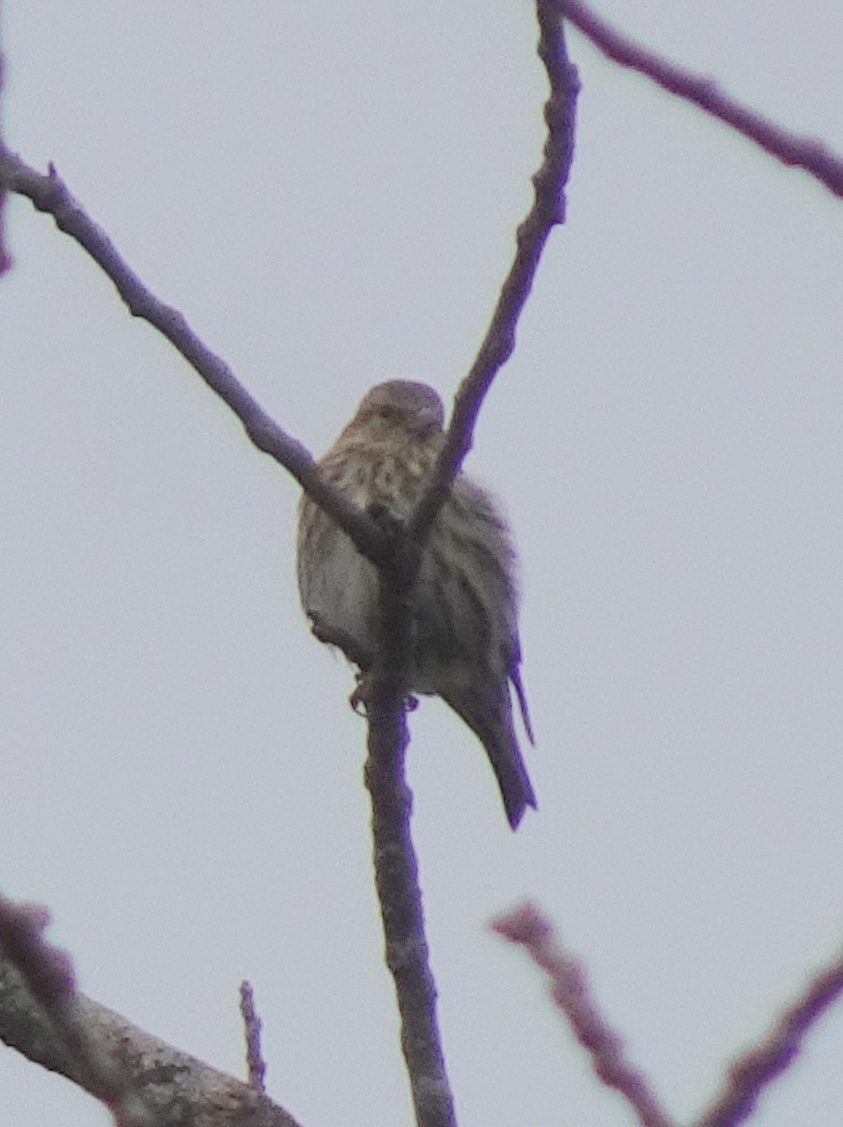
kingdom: Animalia
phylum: Chordata
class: Aves
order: Passeriformes
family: Fringillidae
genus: Spinus
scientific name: Spinus pinus
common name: Pine siskin
